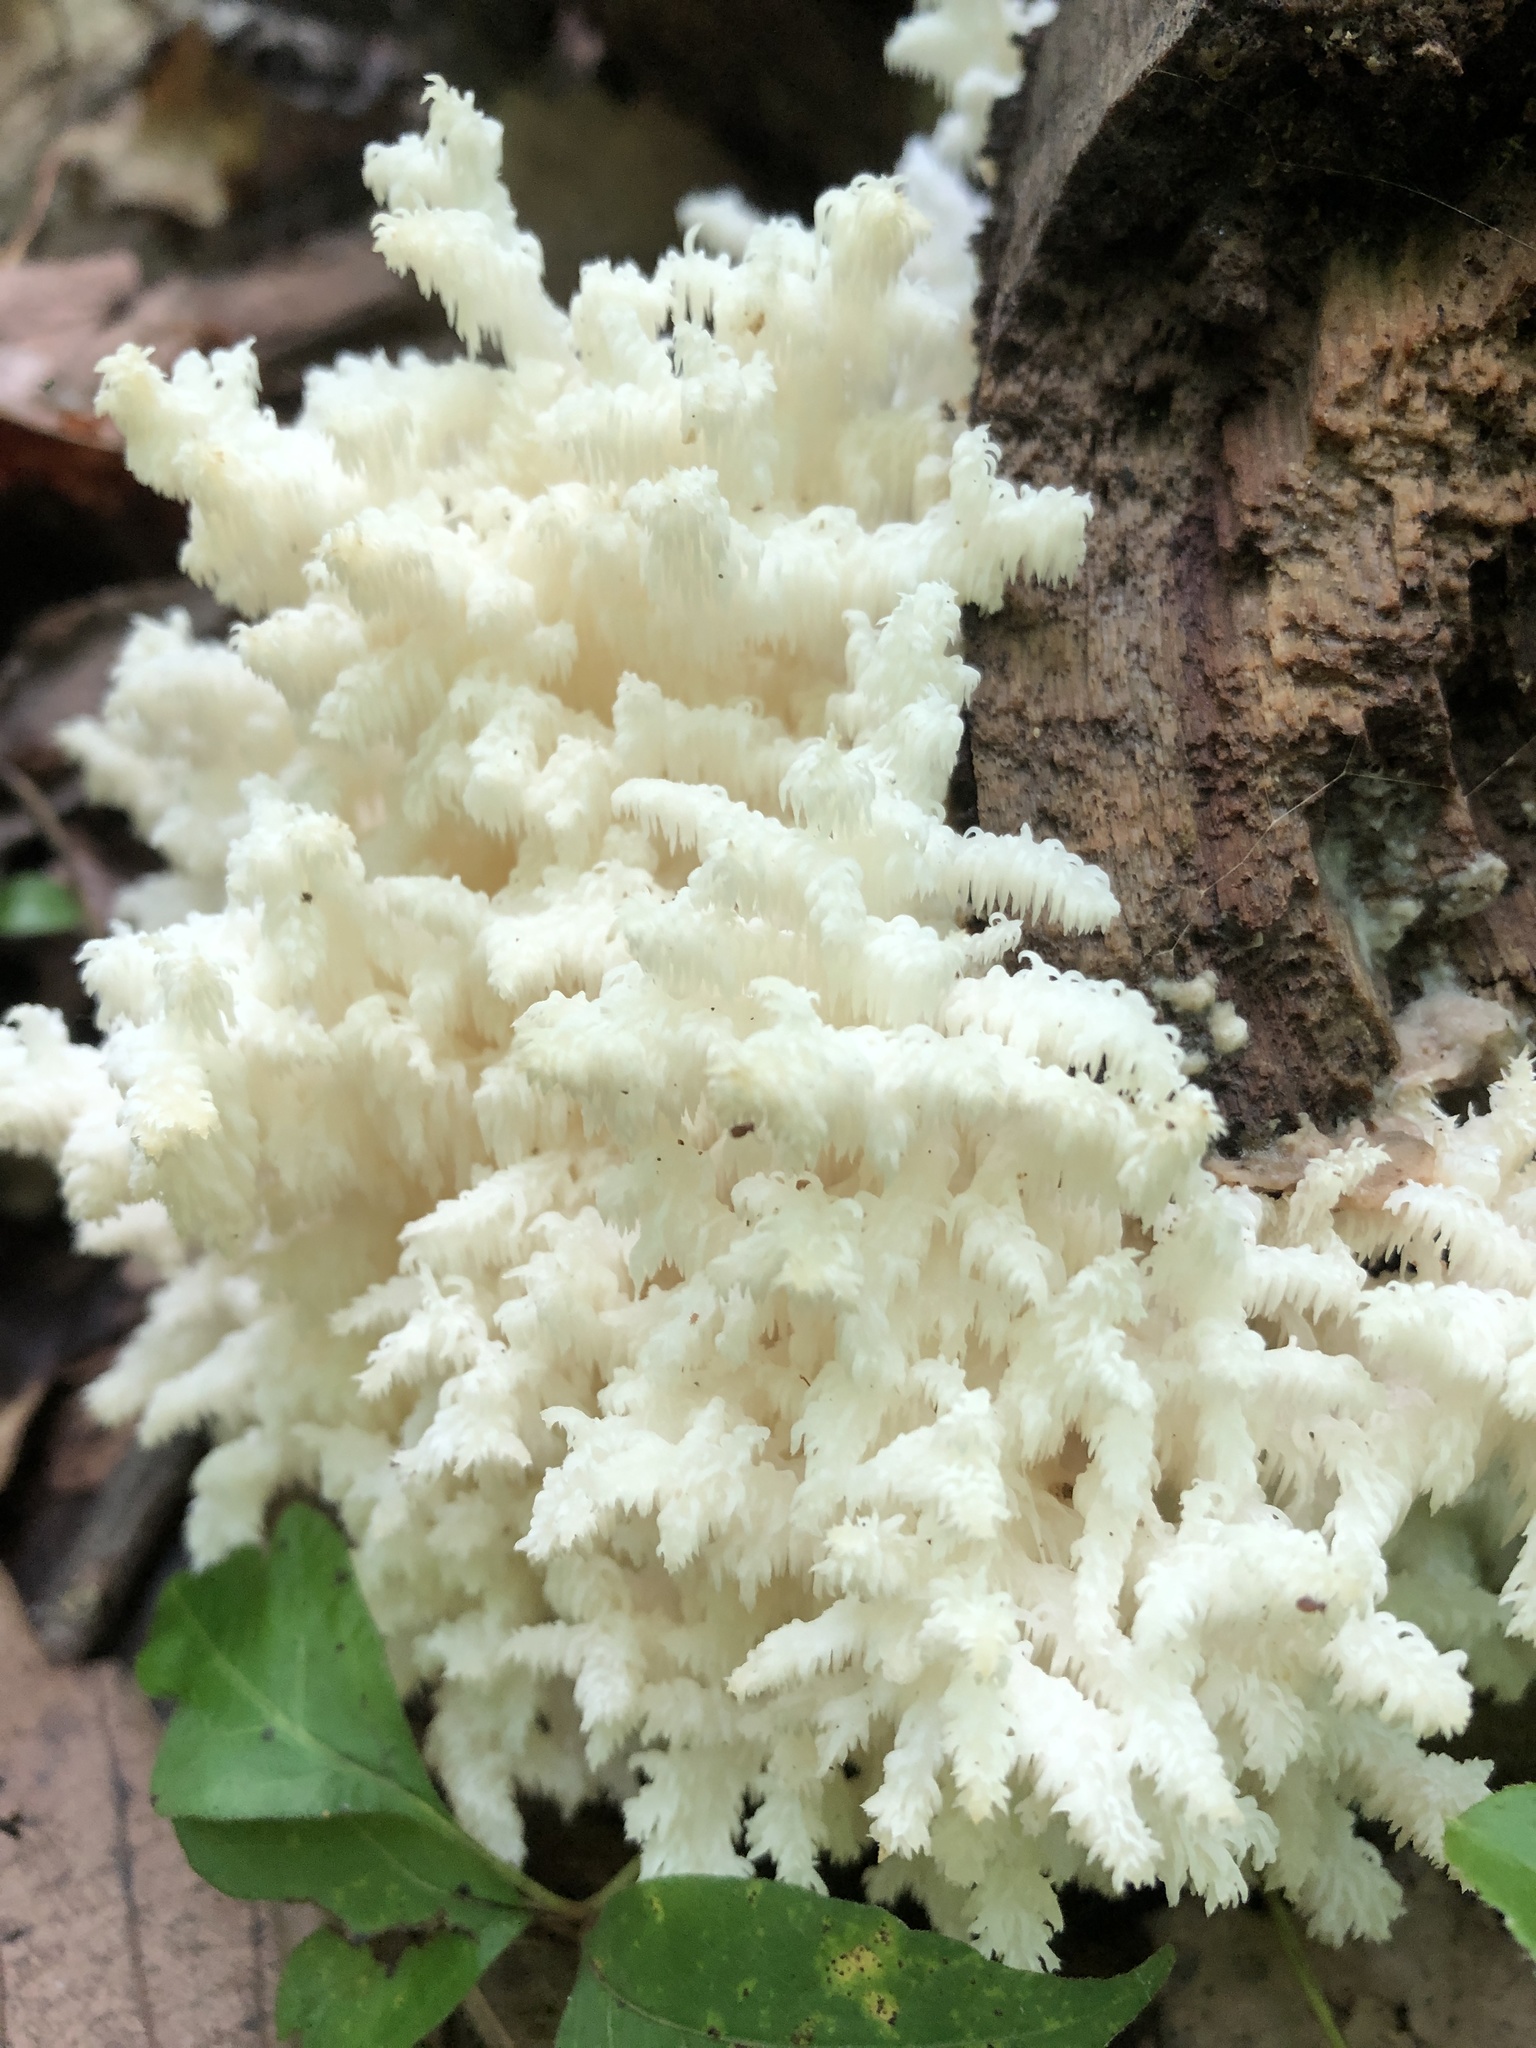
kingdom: Fungi
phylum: Basidiomycota
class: Agaricomycetes
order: Russulales
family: Hericiaceae
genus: Hericium
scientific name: Hericium coralloides
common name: Coral tooth
